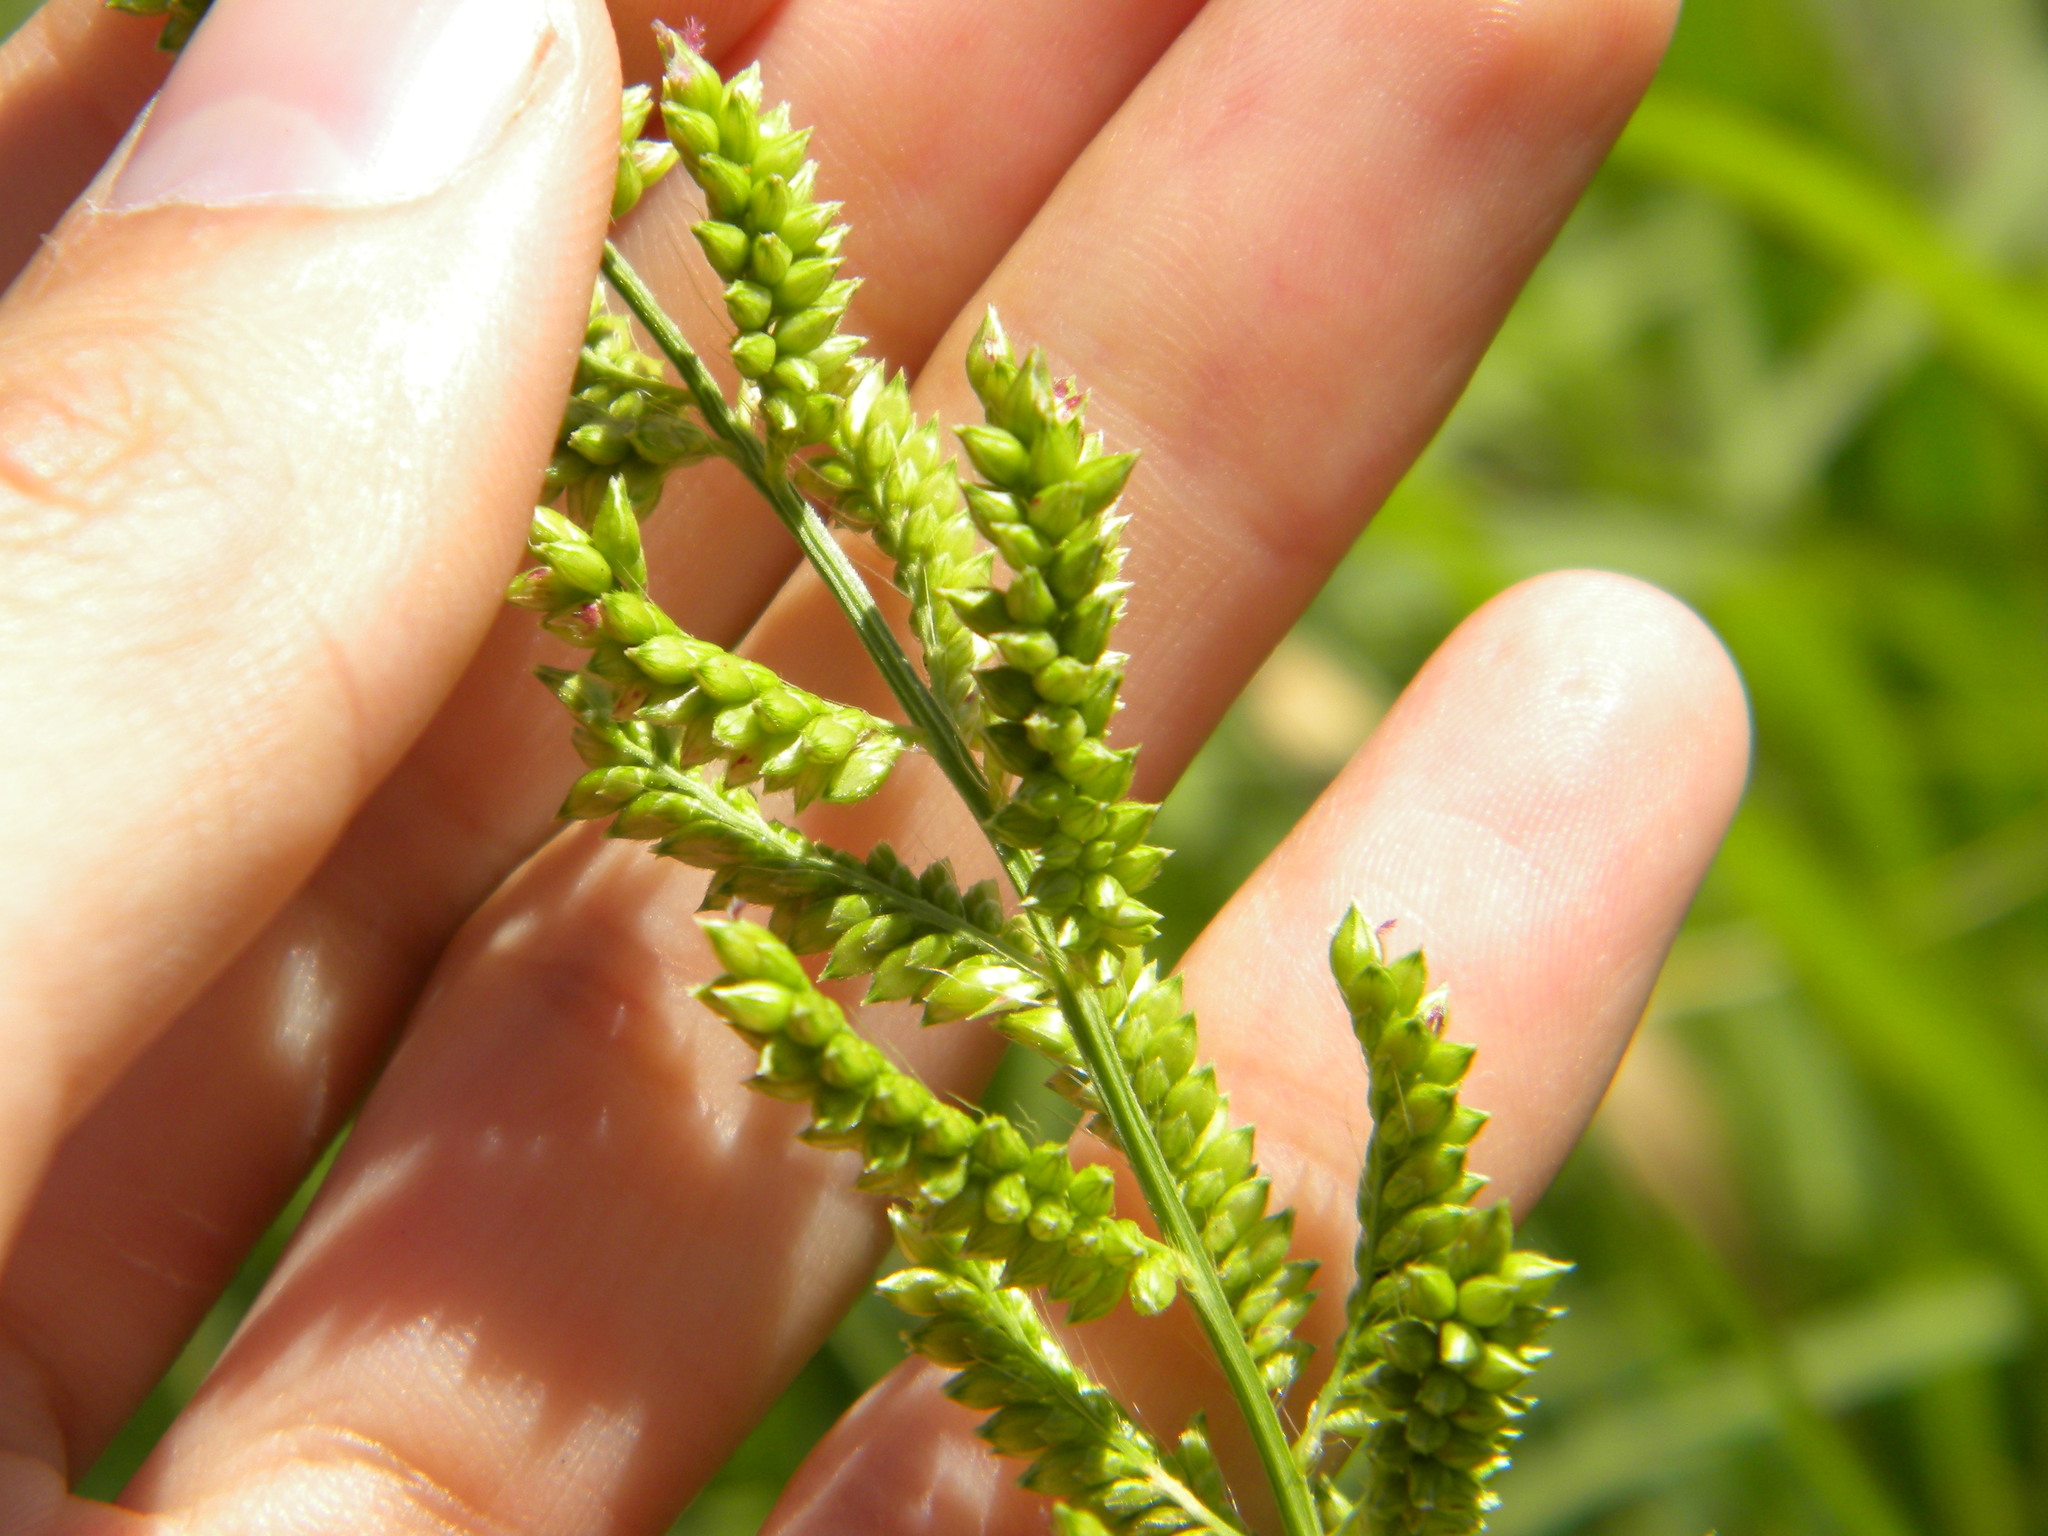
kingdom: Plantae
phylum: Tracheophyta
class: Liliopsida
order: Poales
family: Poaceae
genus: Echinochloa
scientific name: Echinochloa pyramidalis
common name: Antelope grass
